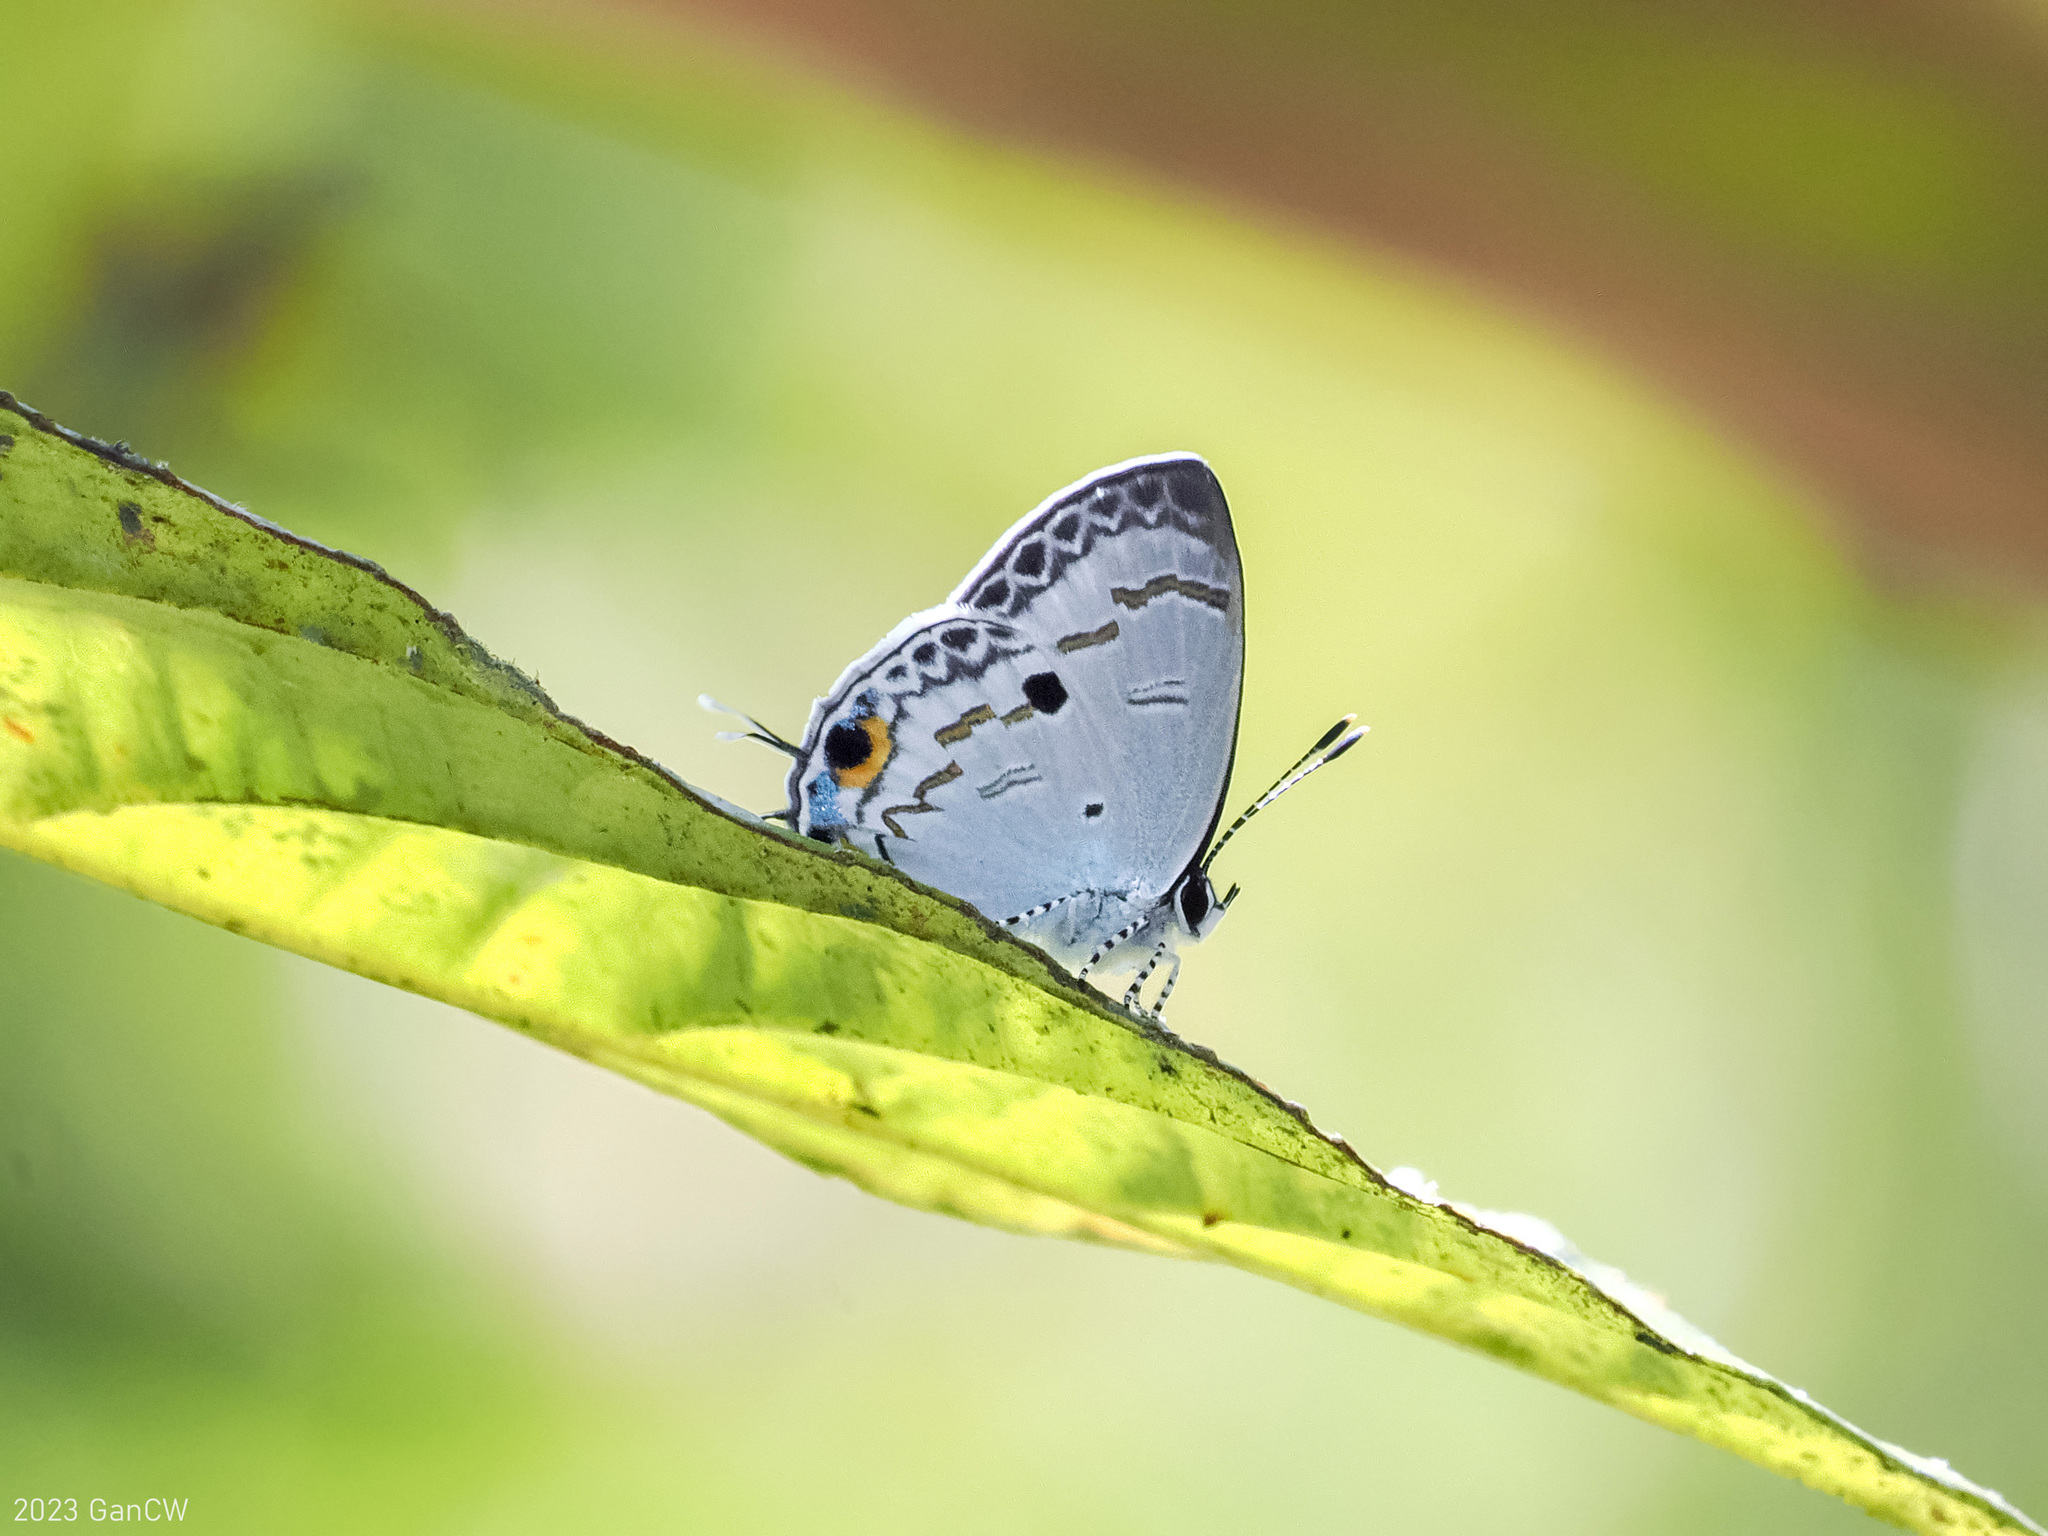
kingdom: Animalia
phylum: Arthropoda
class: Insecta
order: Lepidoptera
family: Lycaenidae
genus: Hypolycaena
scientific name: Hypolycaena
